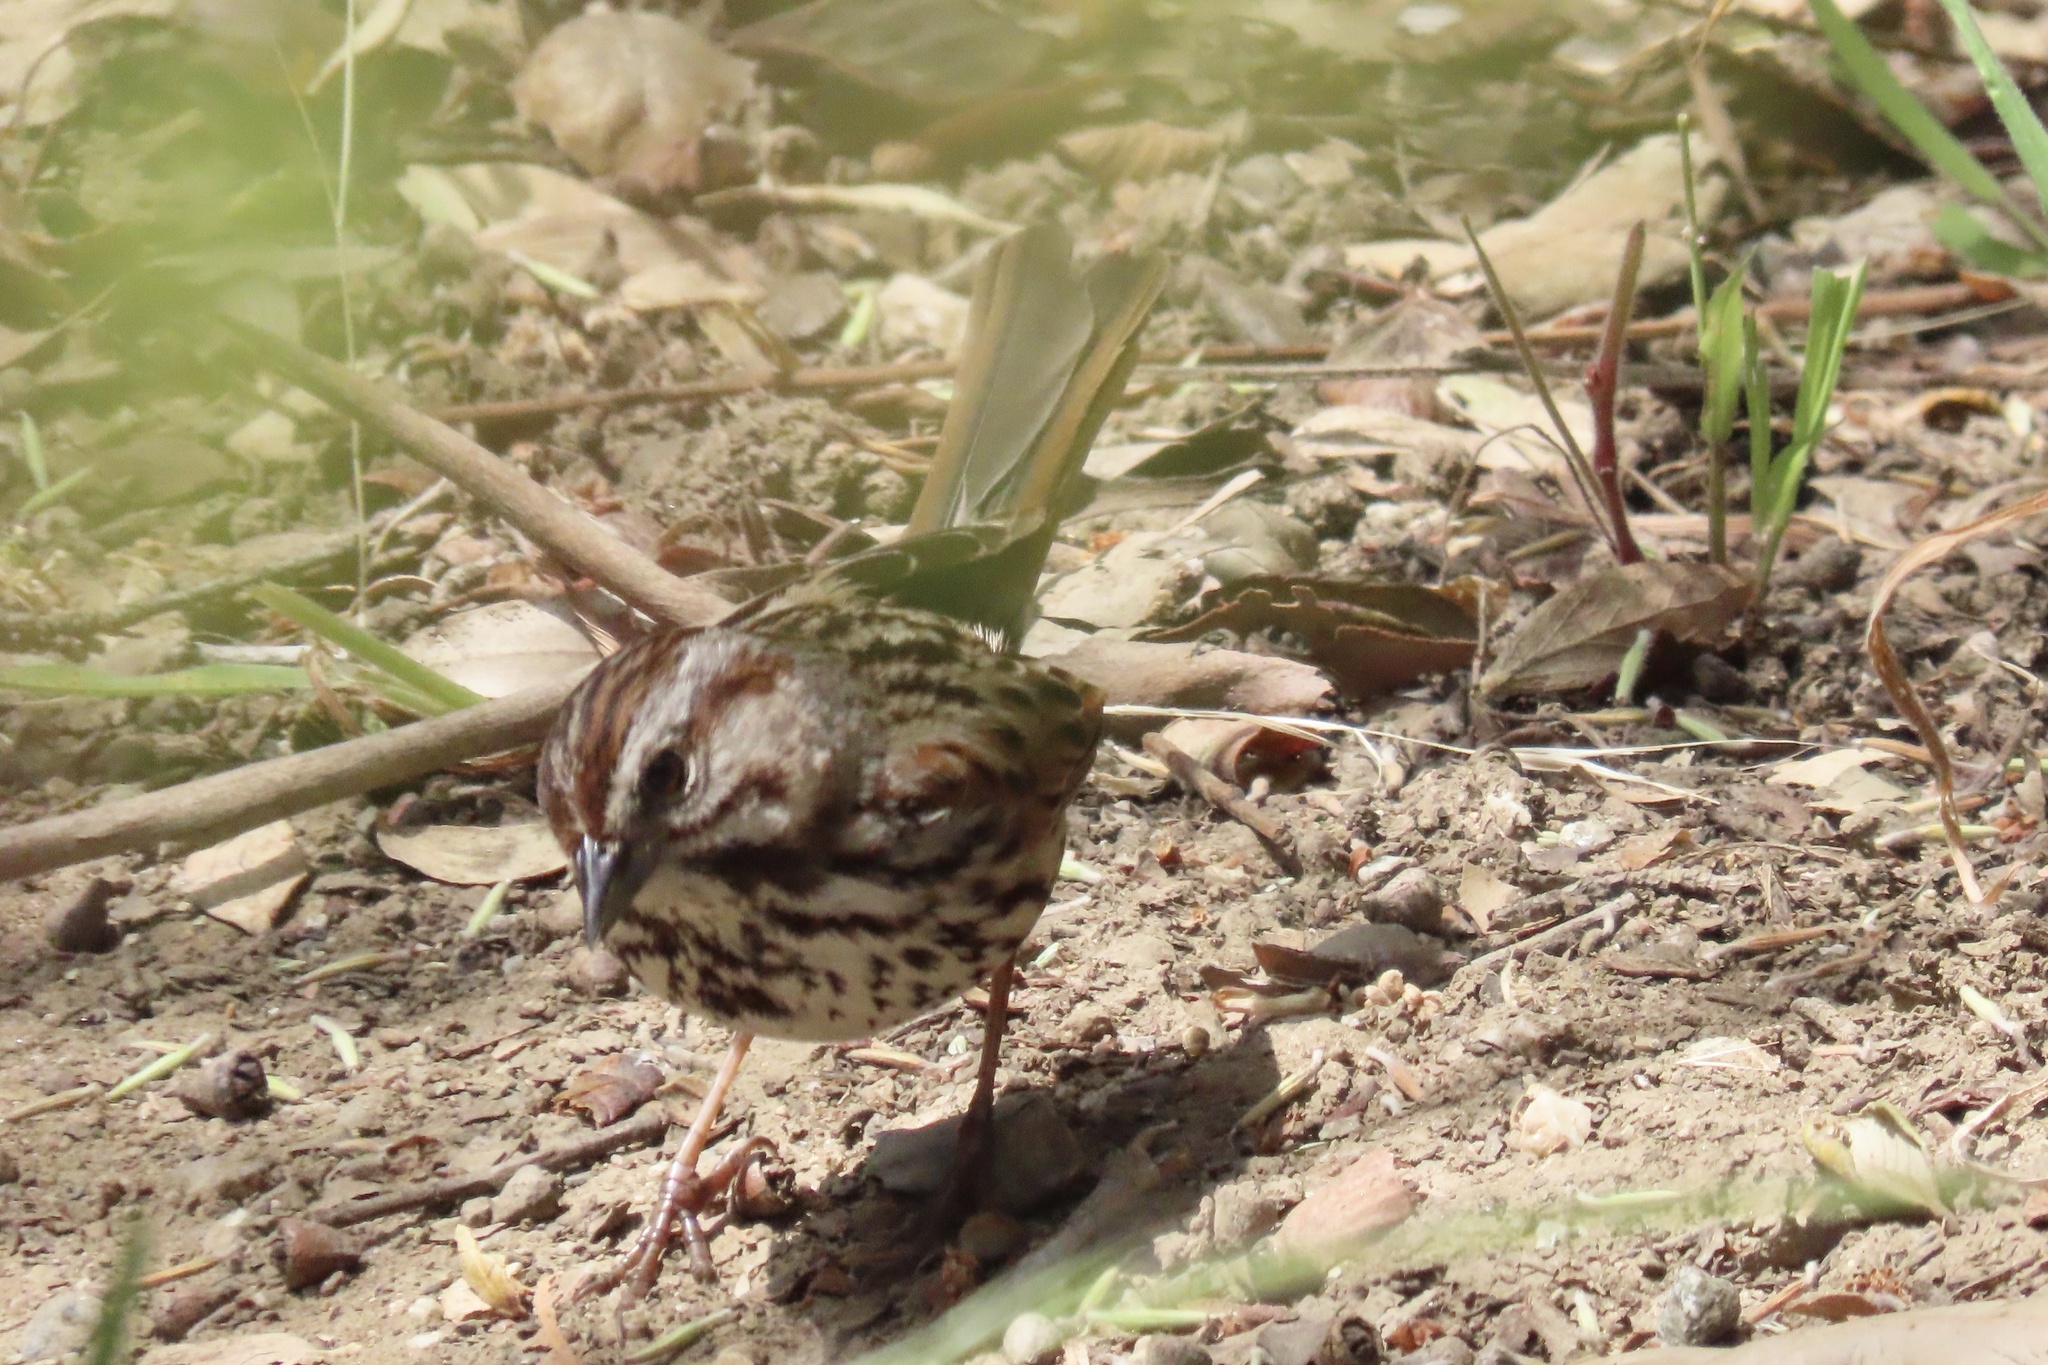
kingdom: Animalia
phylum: Chordata
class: Aves
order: Passeriformes
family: Passerellidae
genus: Melospiza
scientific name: Melospiza melodia
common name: Song sparrow
